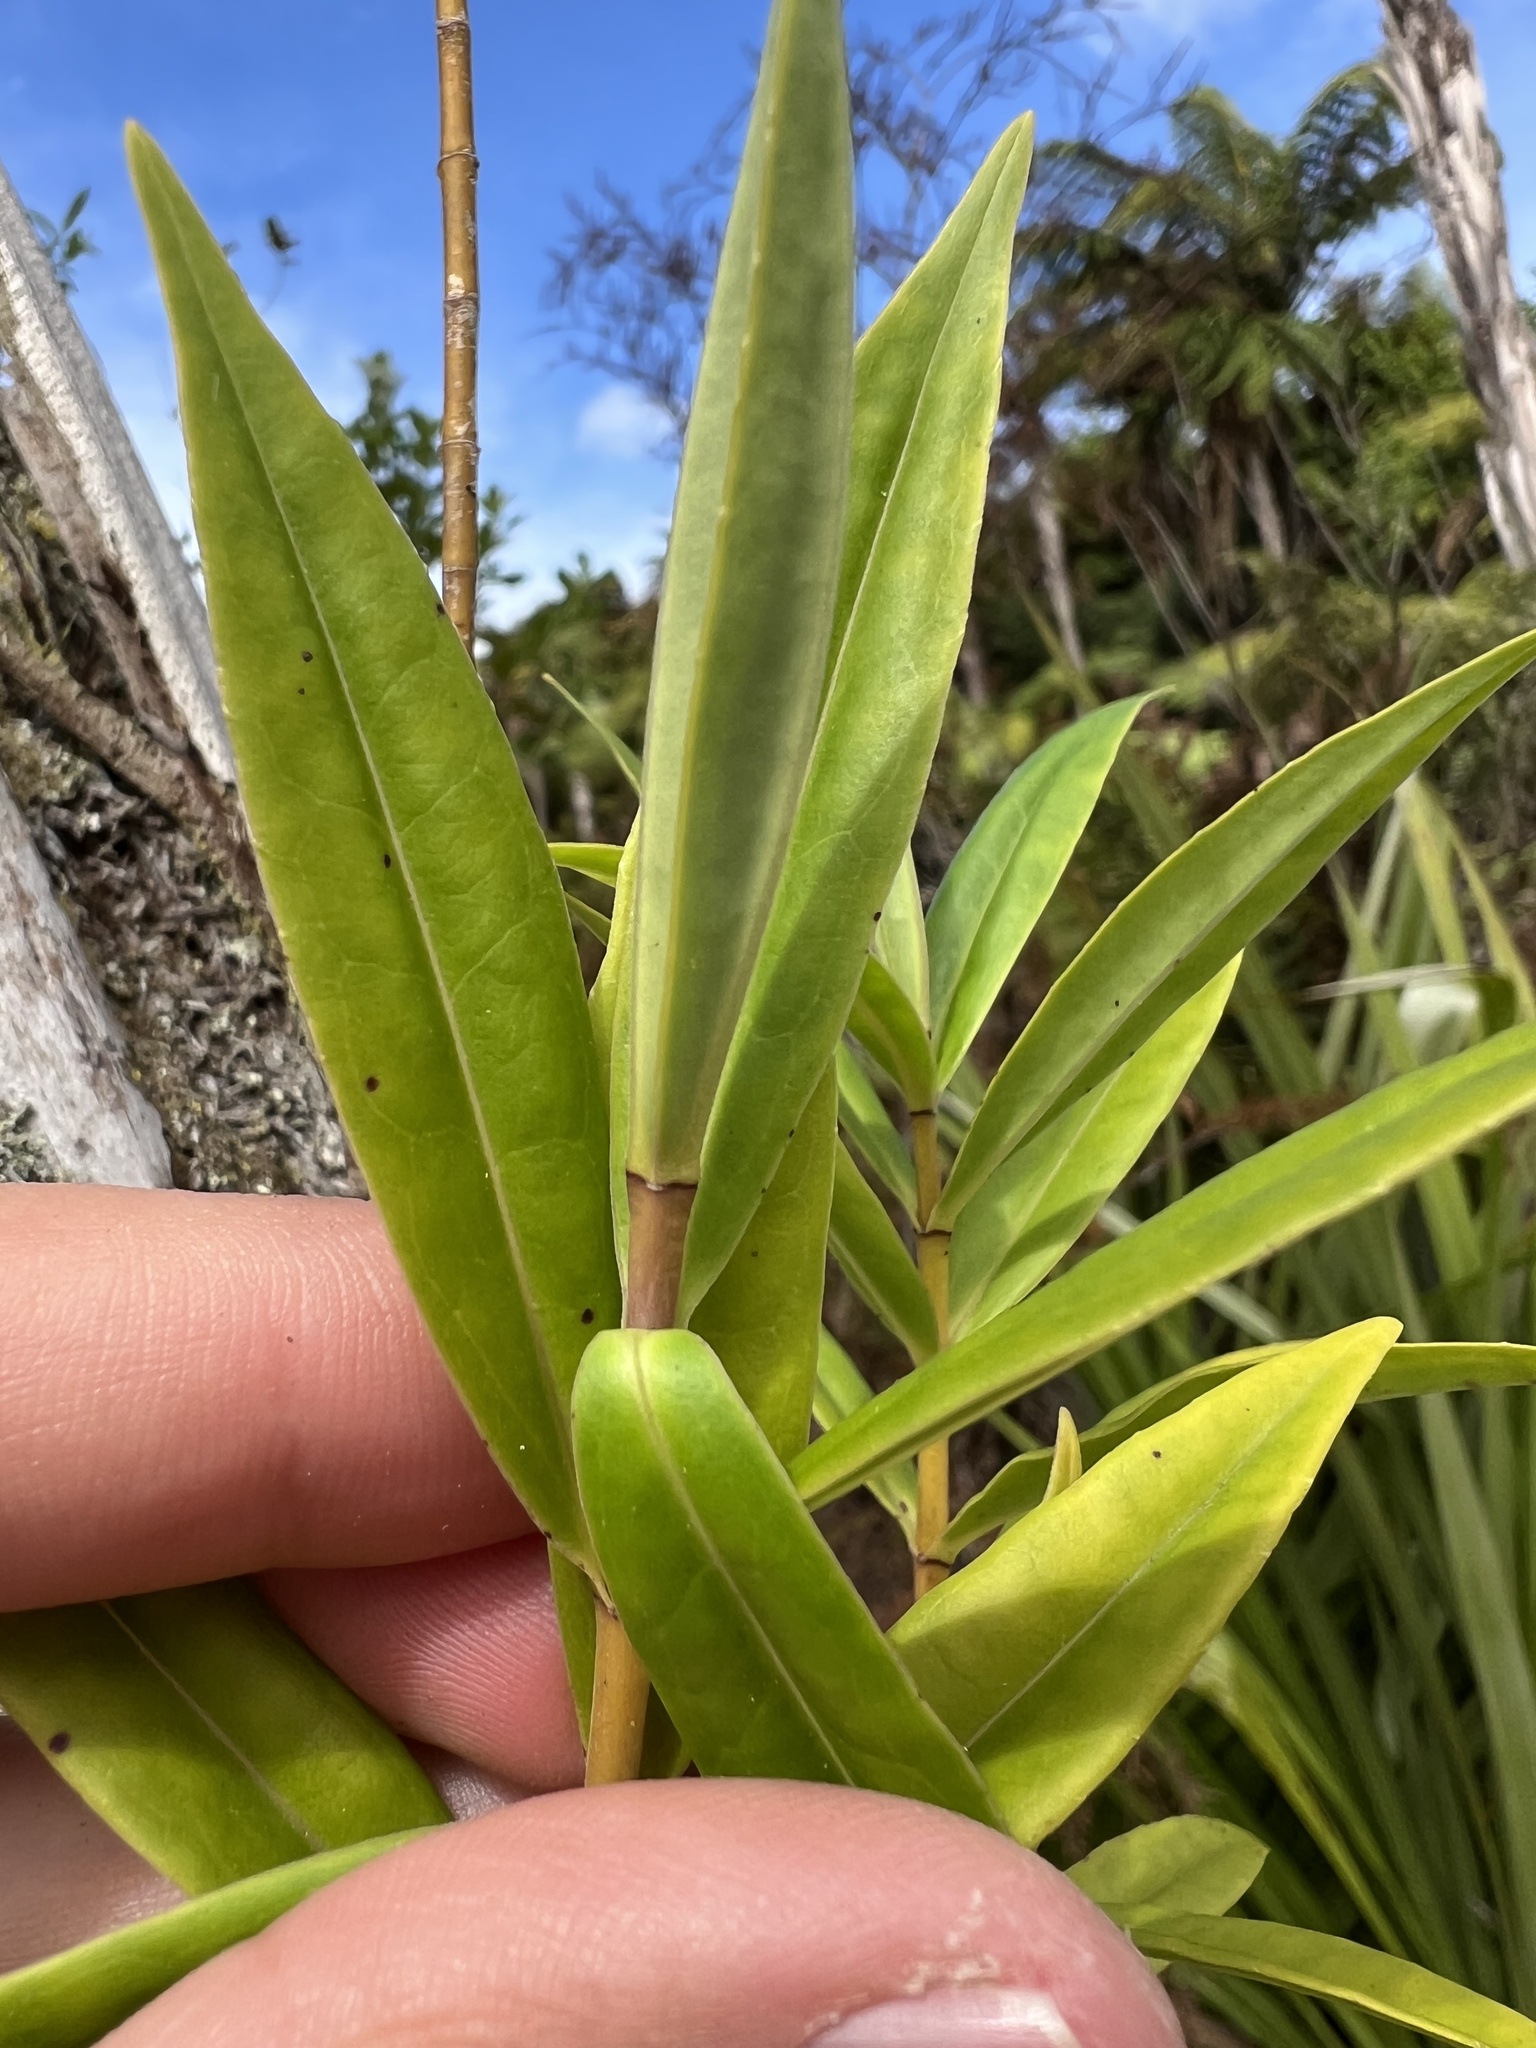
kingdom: Plantae
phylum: Tracheophyta
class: Magnoliopsida
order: Lamiales
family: Plantaginaceae
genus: Veronica
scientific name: Veronica stricta
